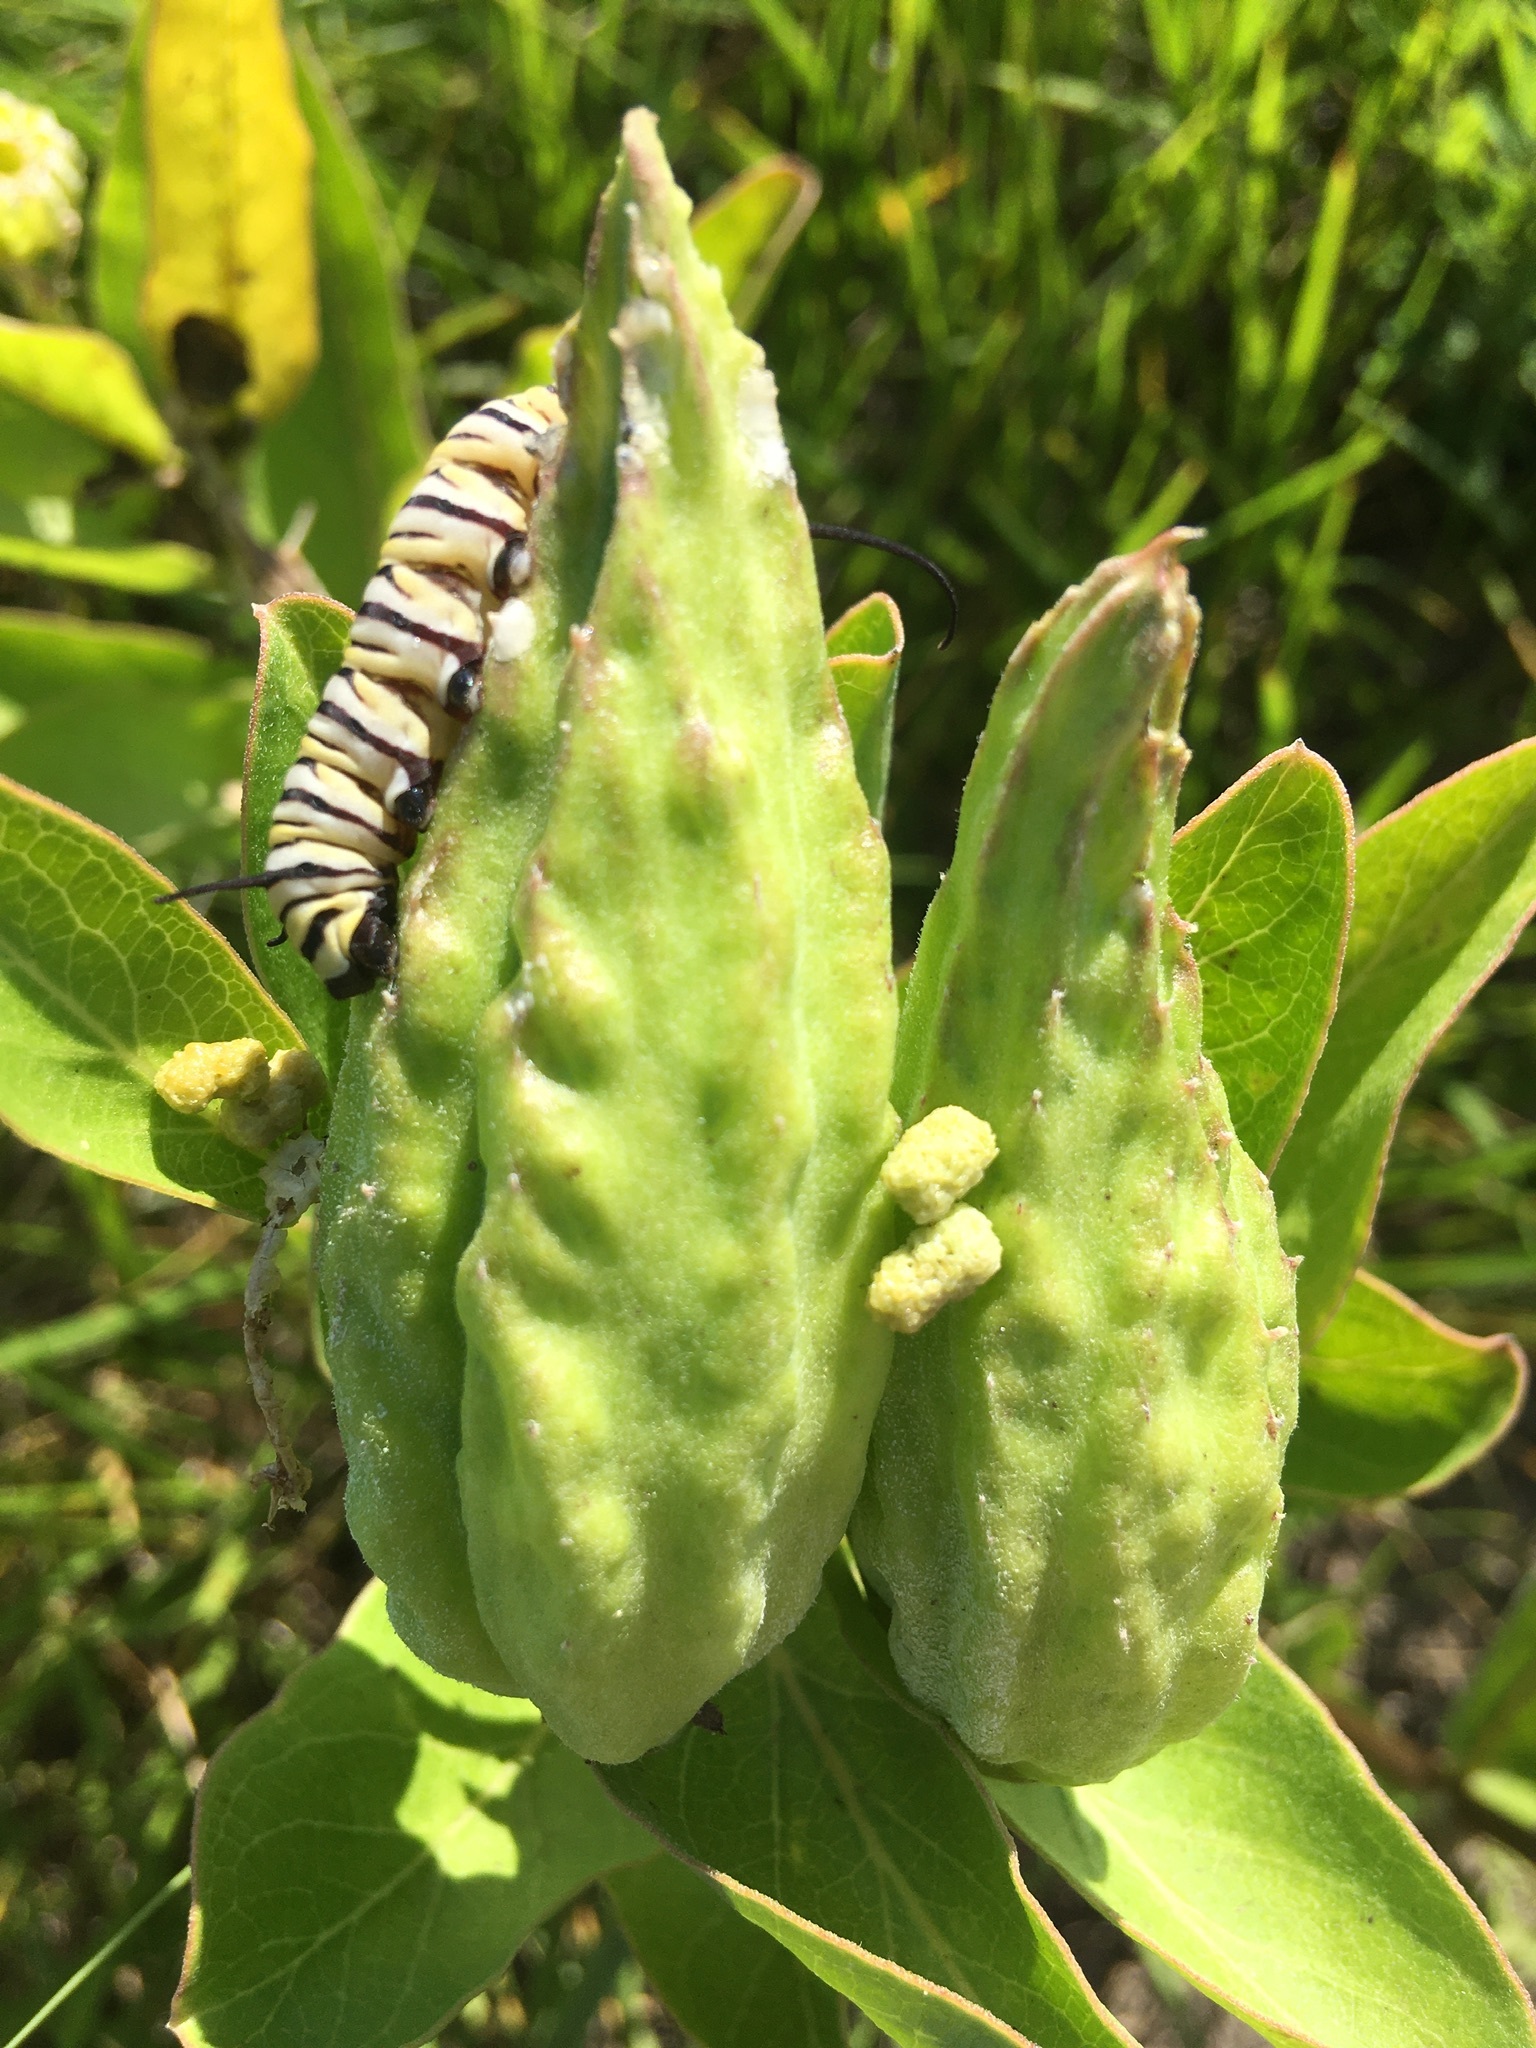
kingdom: Animalia
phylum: Arthropoda
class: Insecta
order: Lepidoptera
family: Nymphalidae
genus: Danaus
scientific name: Danaus plexippus
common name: Monarch
